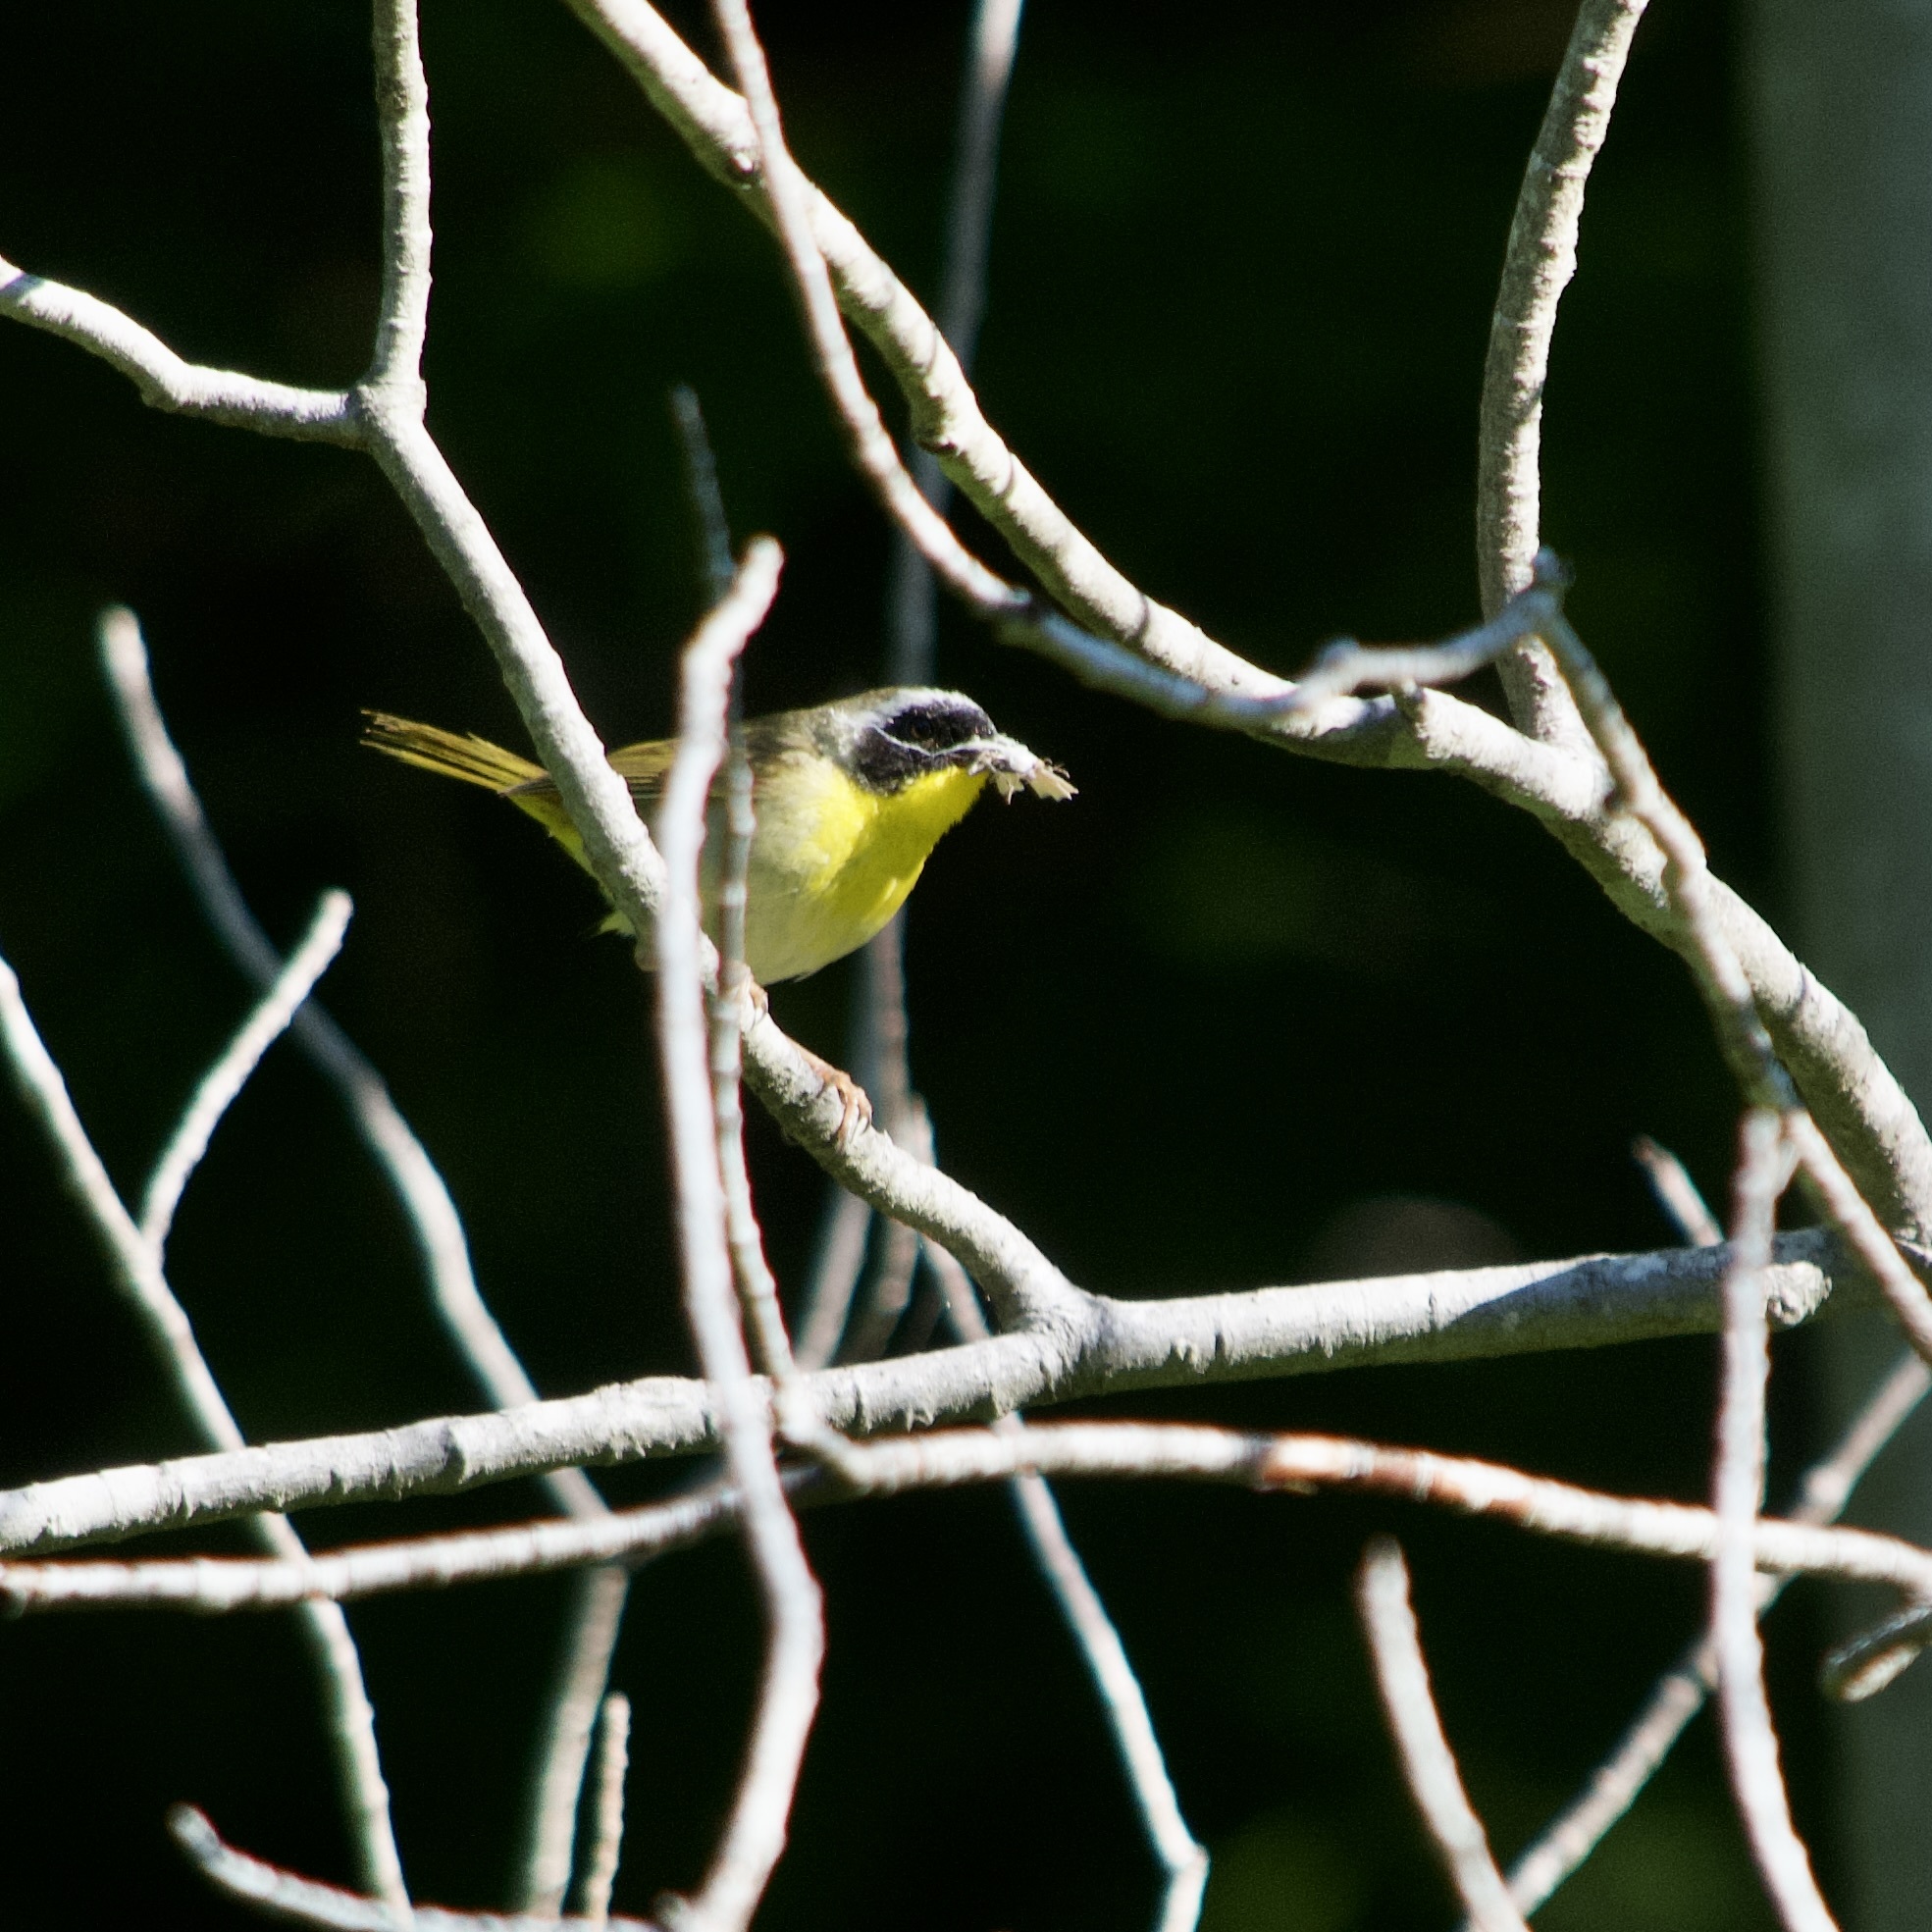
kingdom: Animalia
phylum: Chordata
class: Aves
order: Passeriformes
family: Parulidae
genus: Geothlypis
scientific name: Geothlypis trichas
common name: Common yellowthroat
